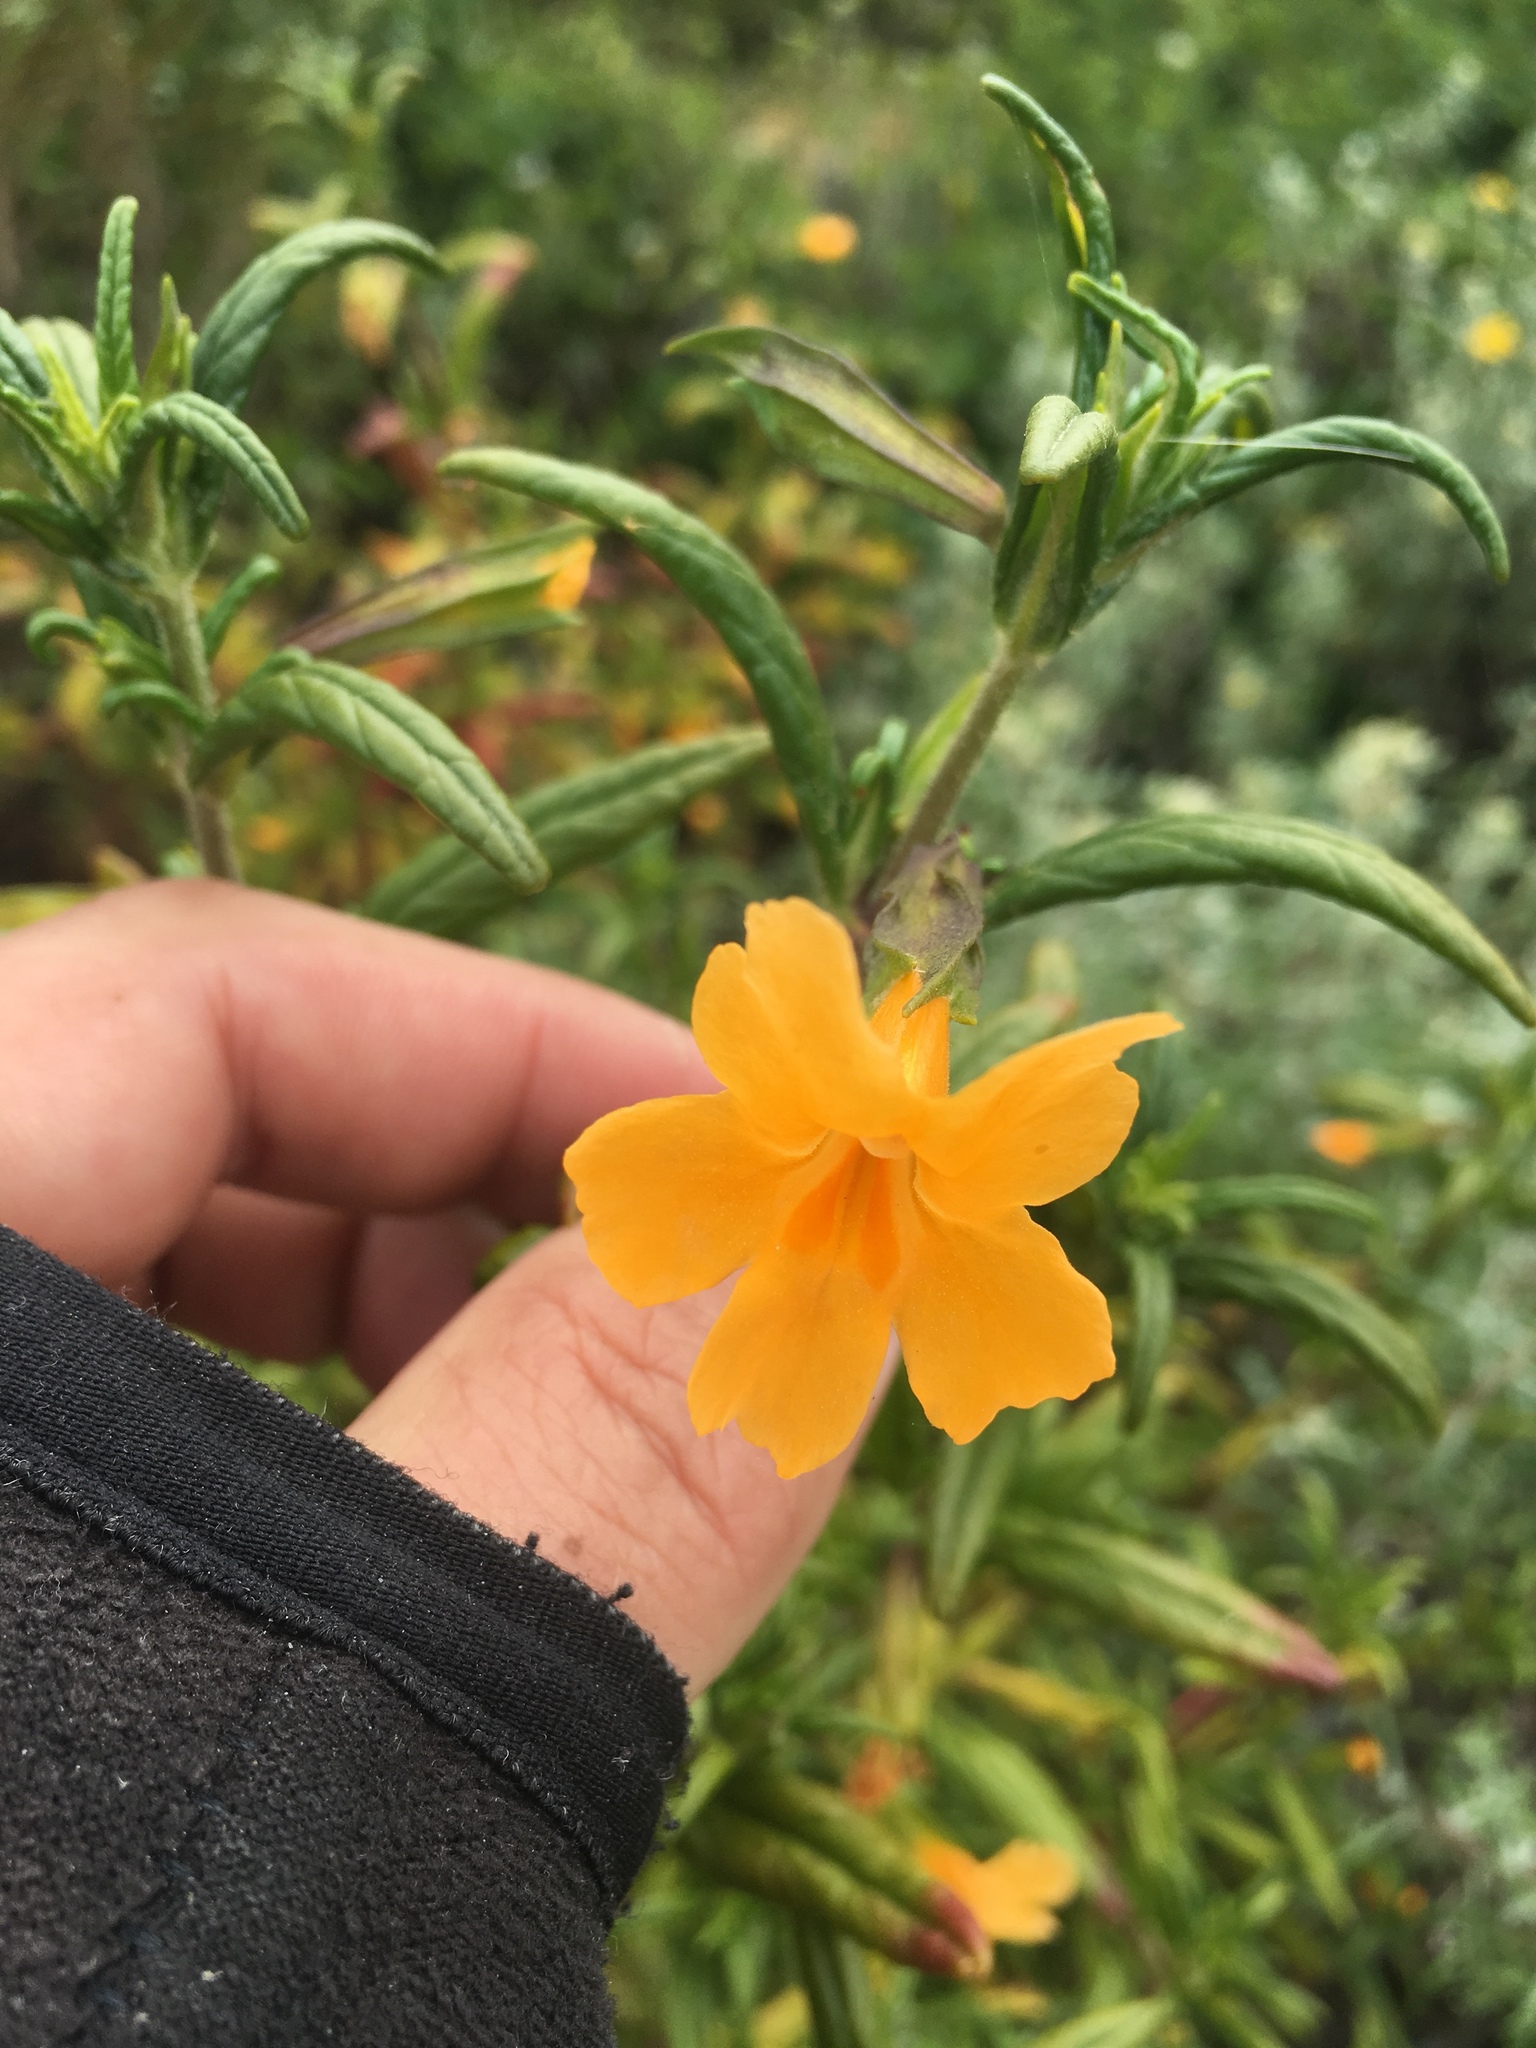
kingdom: Plantae
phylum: Tracheophyta
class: Magnoliopsida
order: Lamiales
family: Phrymaceae
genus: Diplacus
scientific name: Diplacus aurantiacus
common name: Bush monkey-flower
